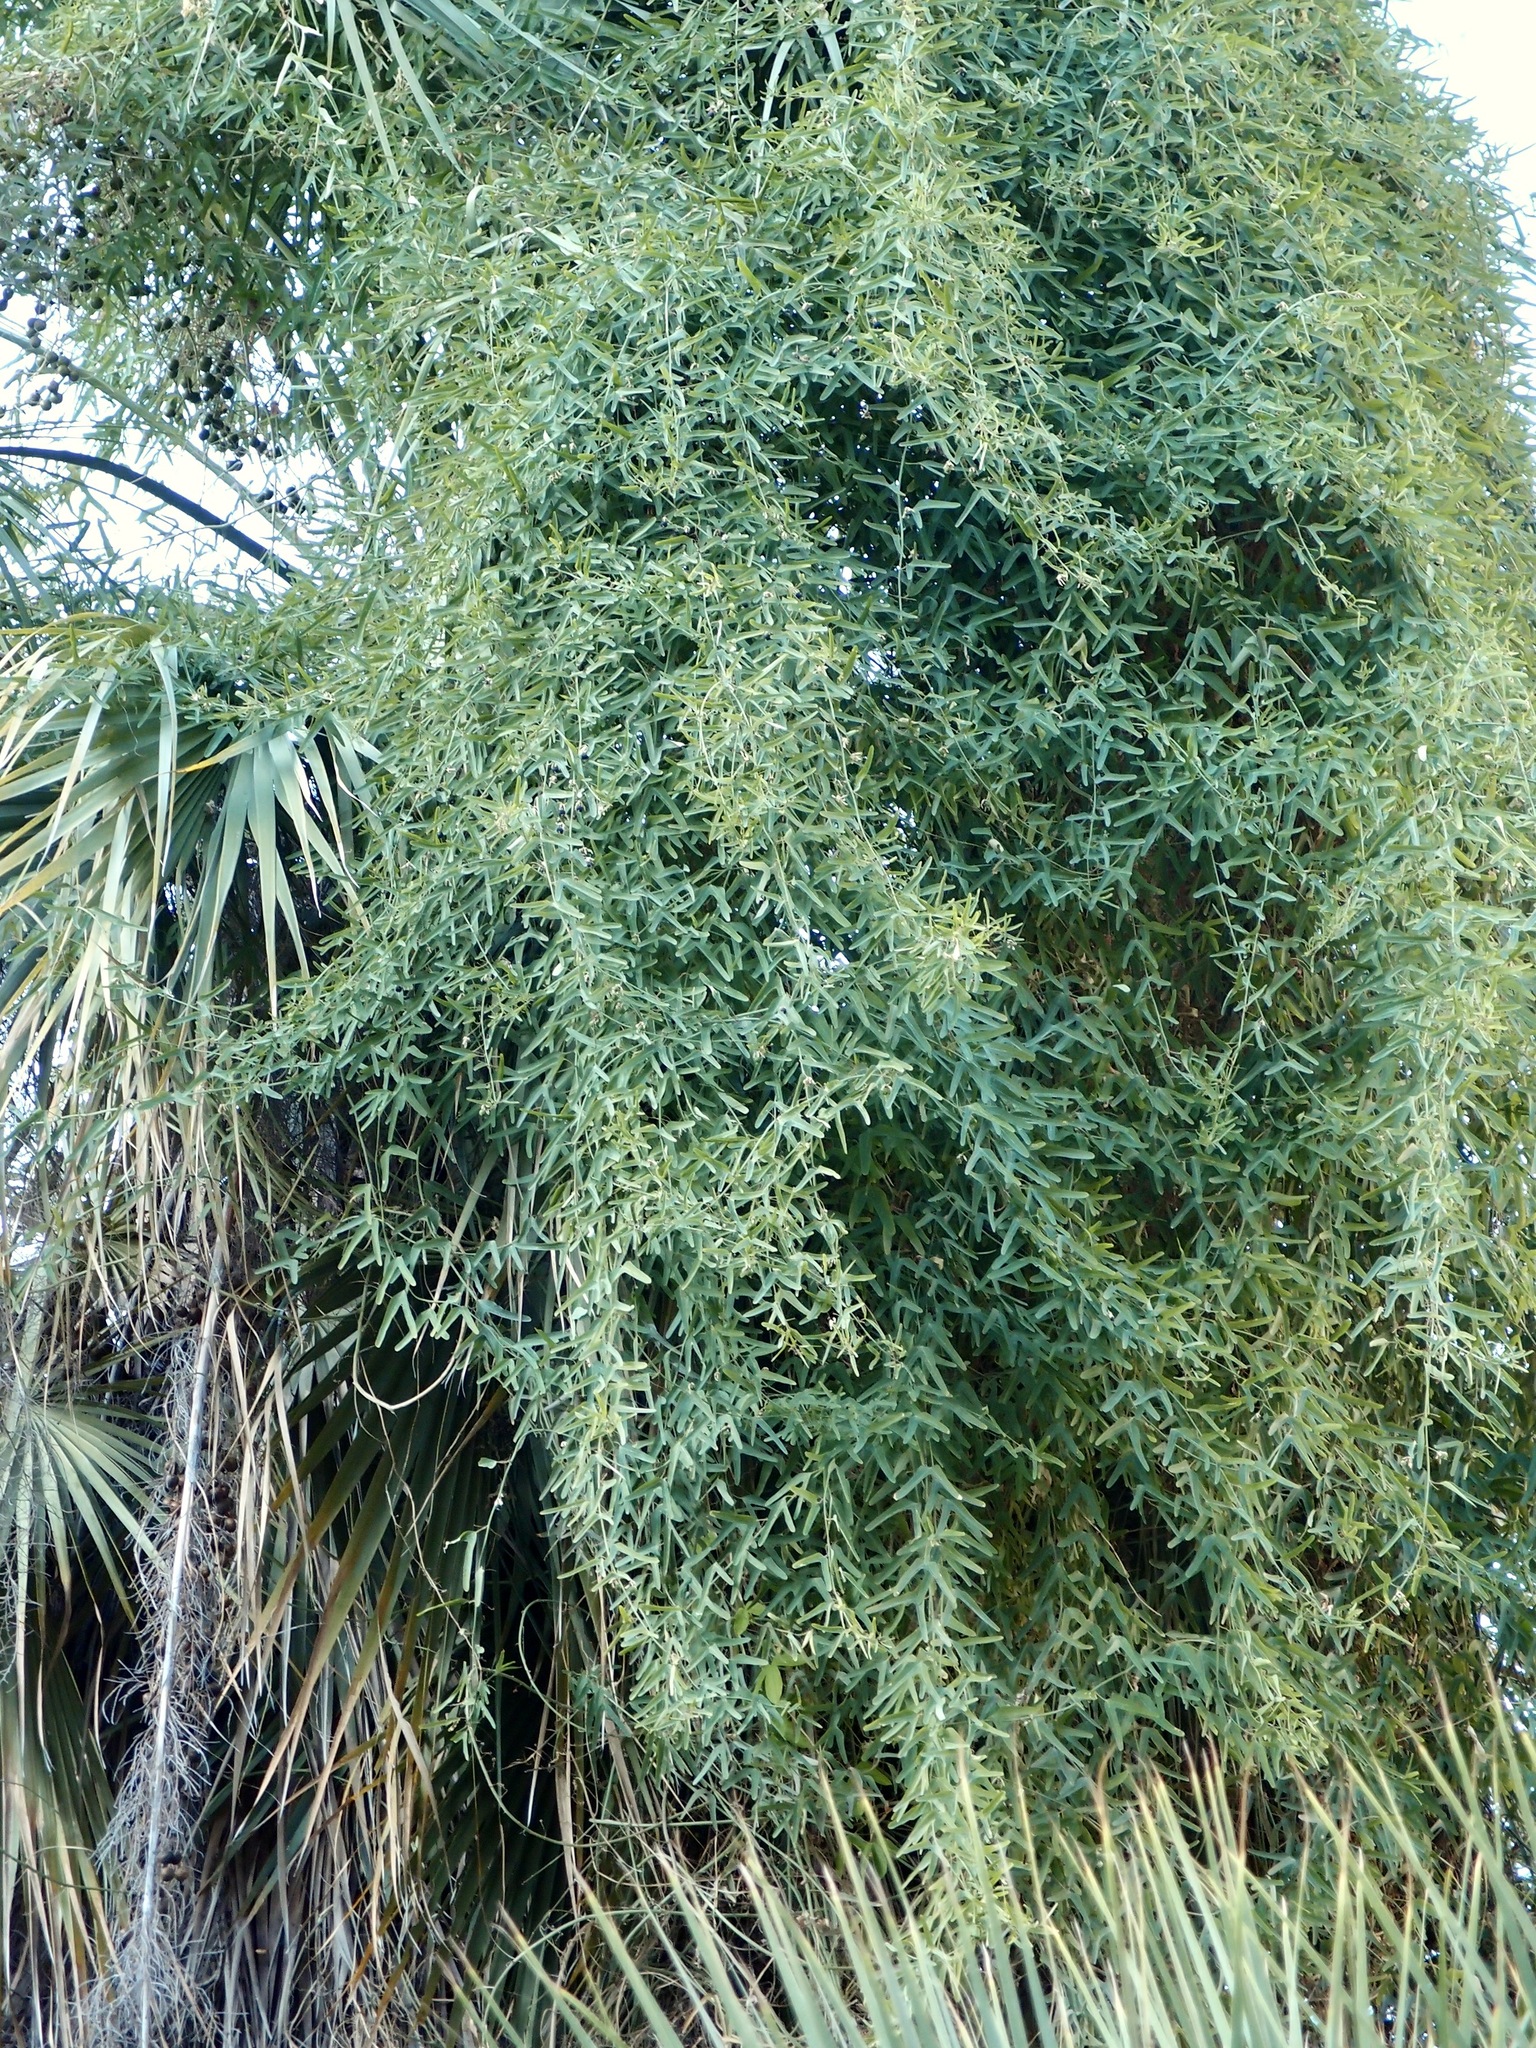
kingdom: Plantae
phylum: Tracheophyta
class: Magnoliopsida
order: Malpighiales
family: Passifloraceae
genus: Passiflora
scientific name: Passiflora mexicana
